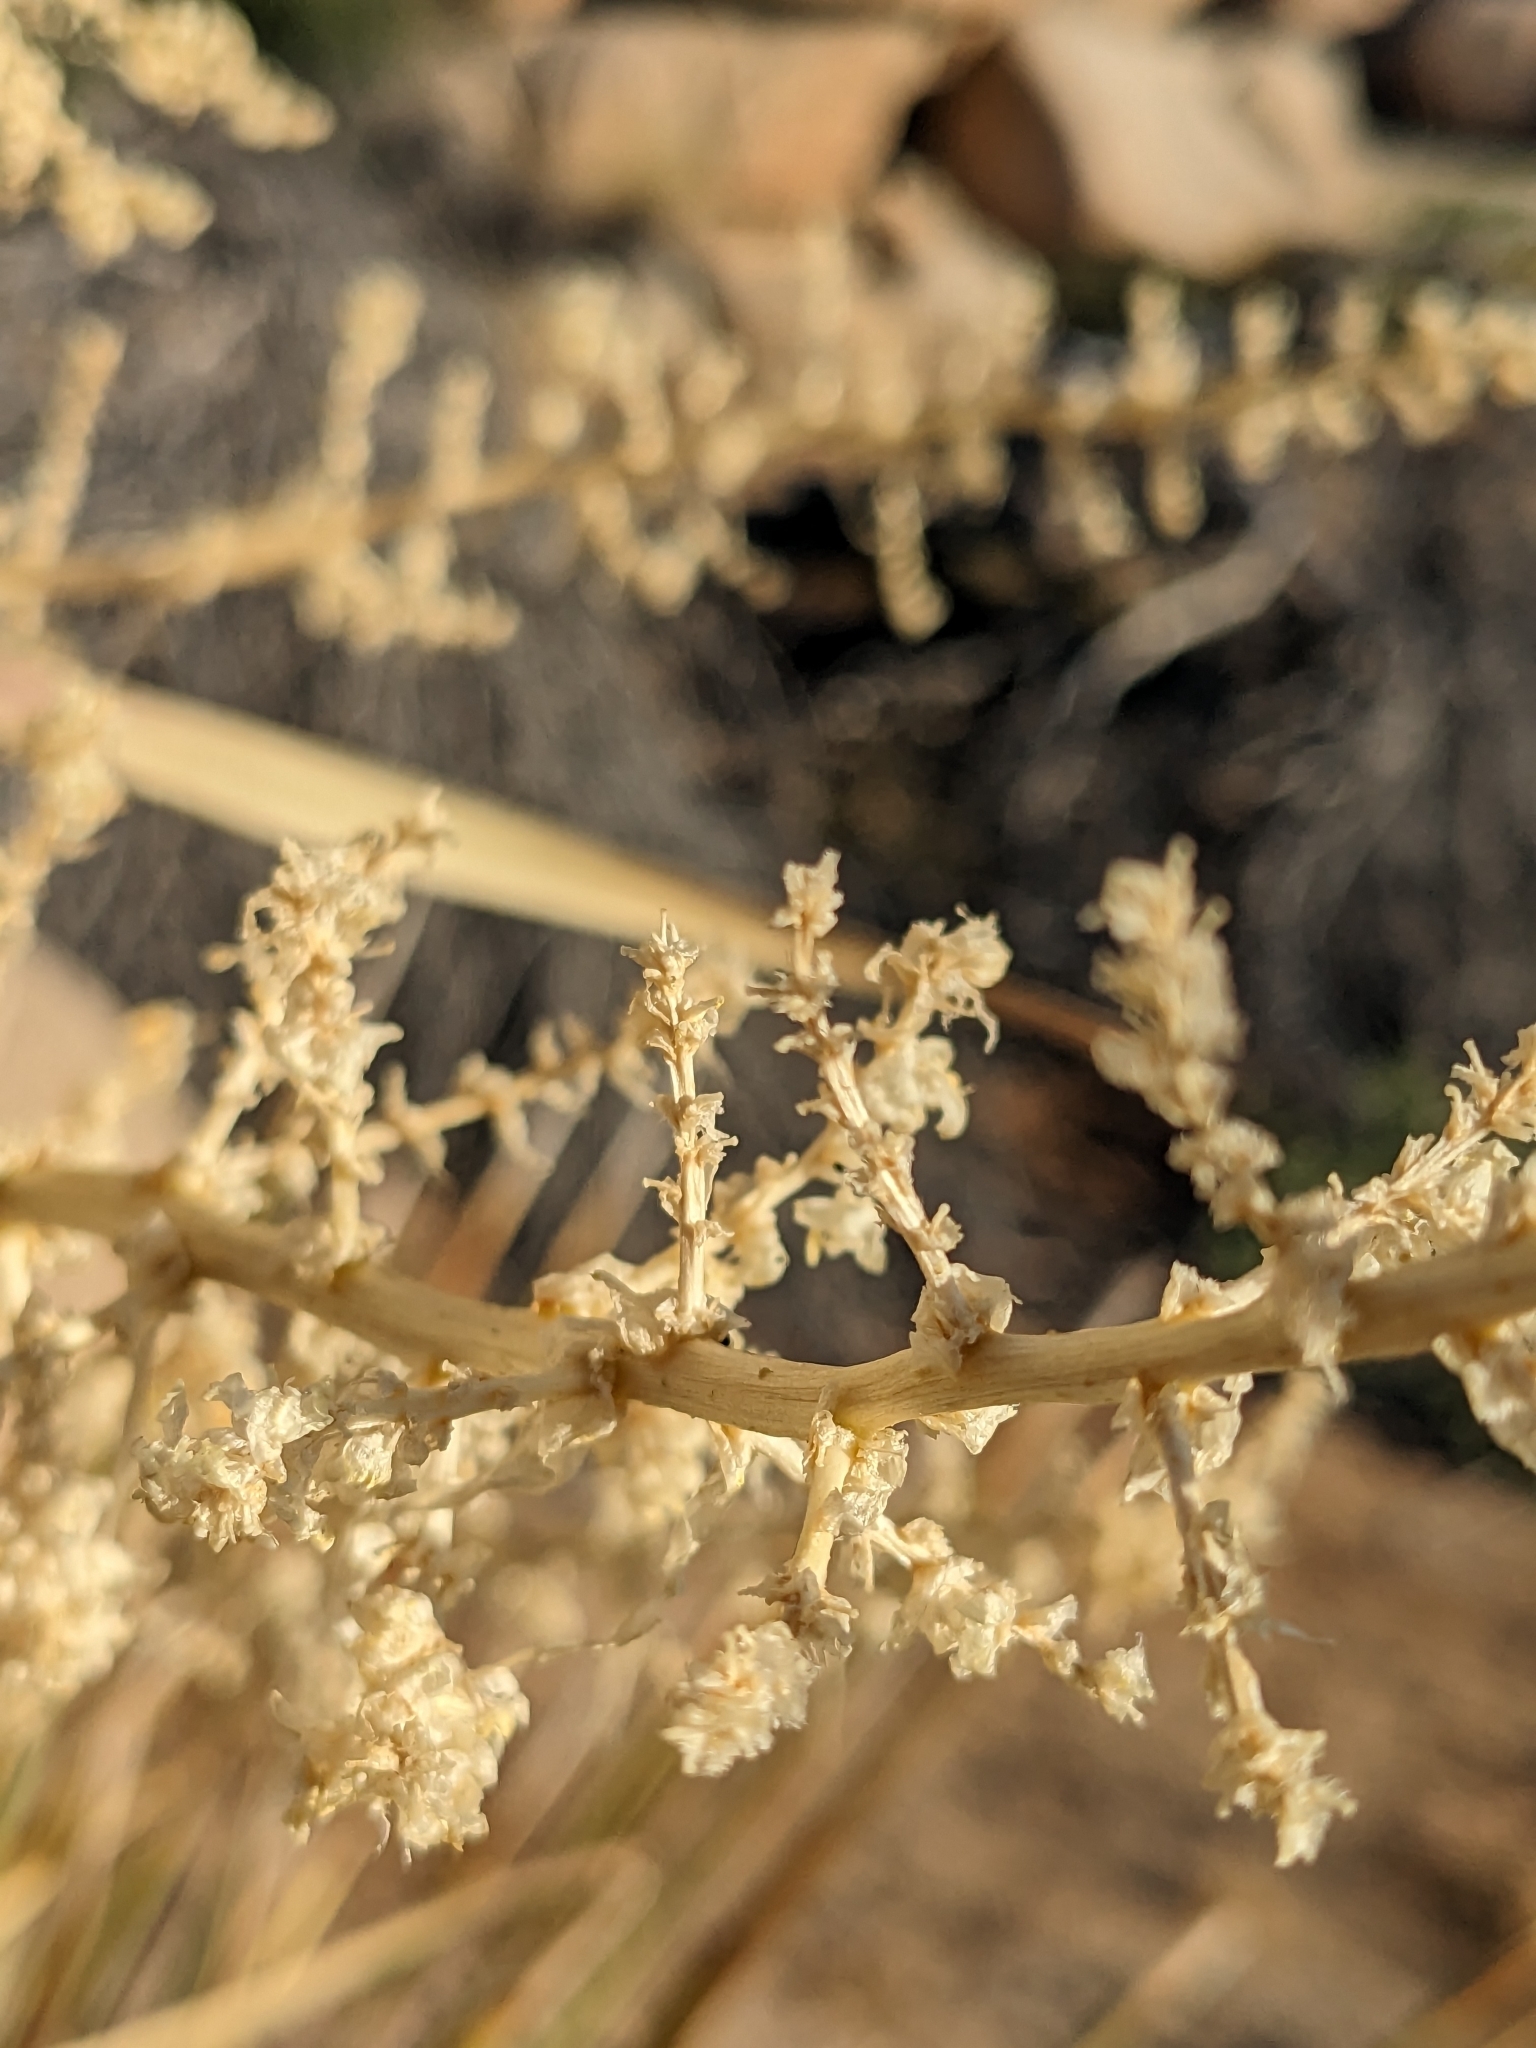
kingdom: Plantae
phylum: Tracheophyta
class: Liliopsida
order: Asparagales
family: Asparagaceae
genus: Nolina
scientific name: Nolina parryi
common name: Parry nolina
